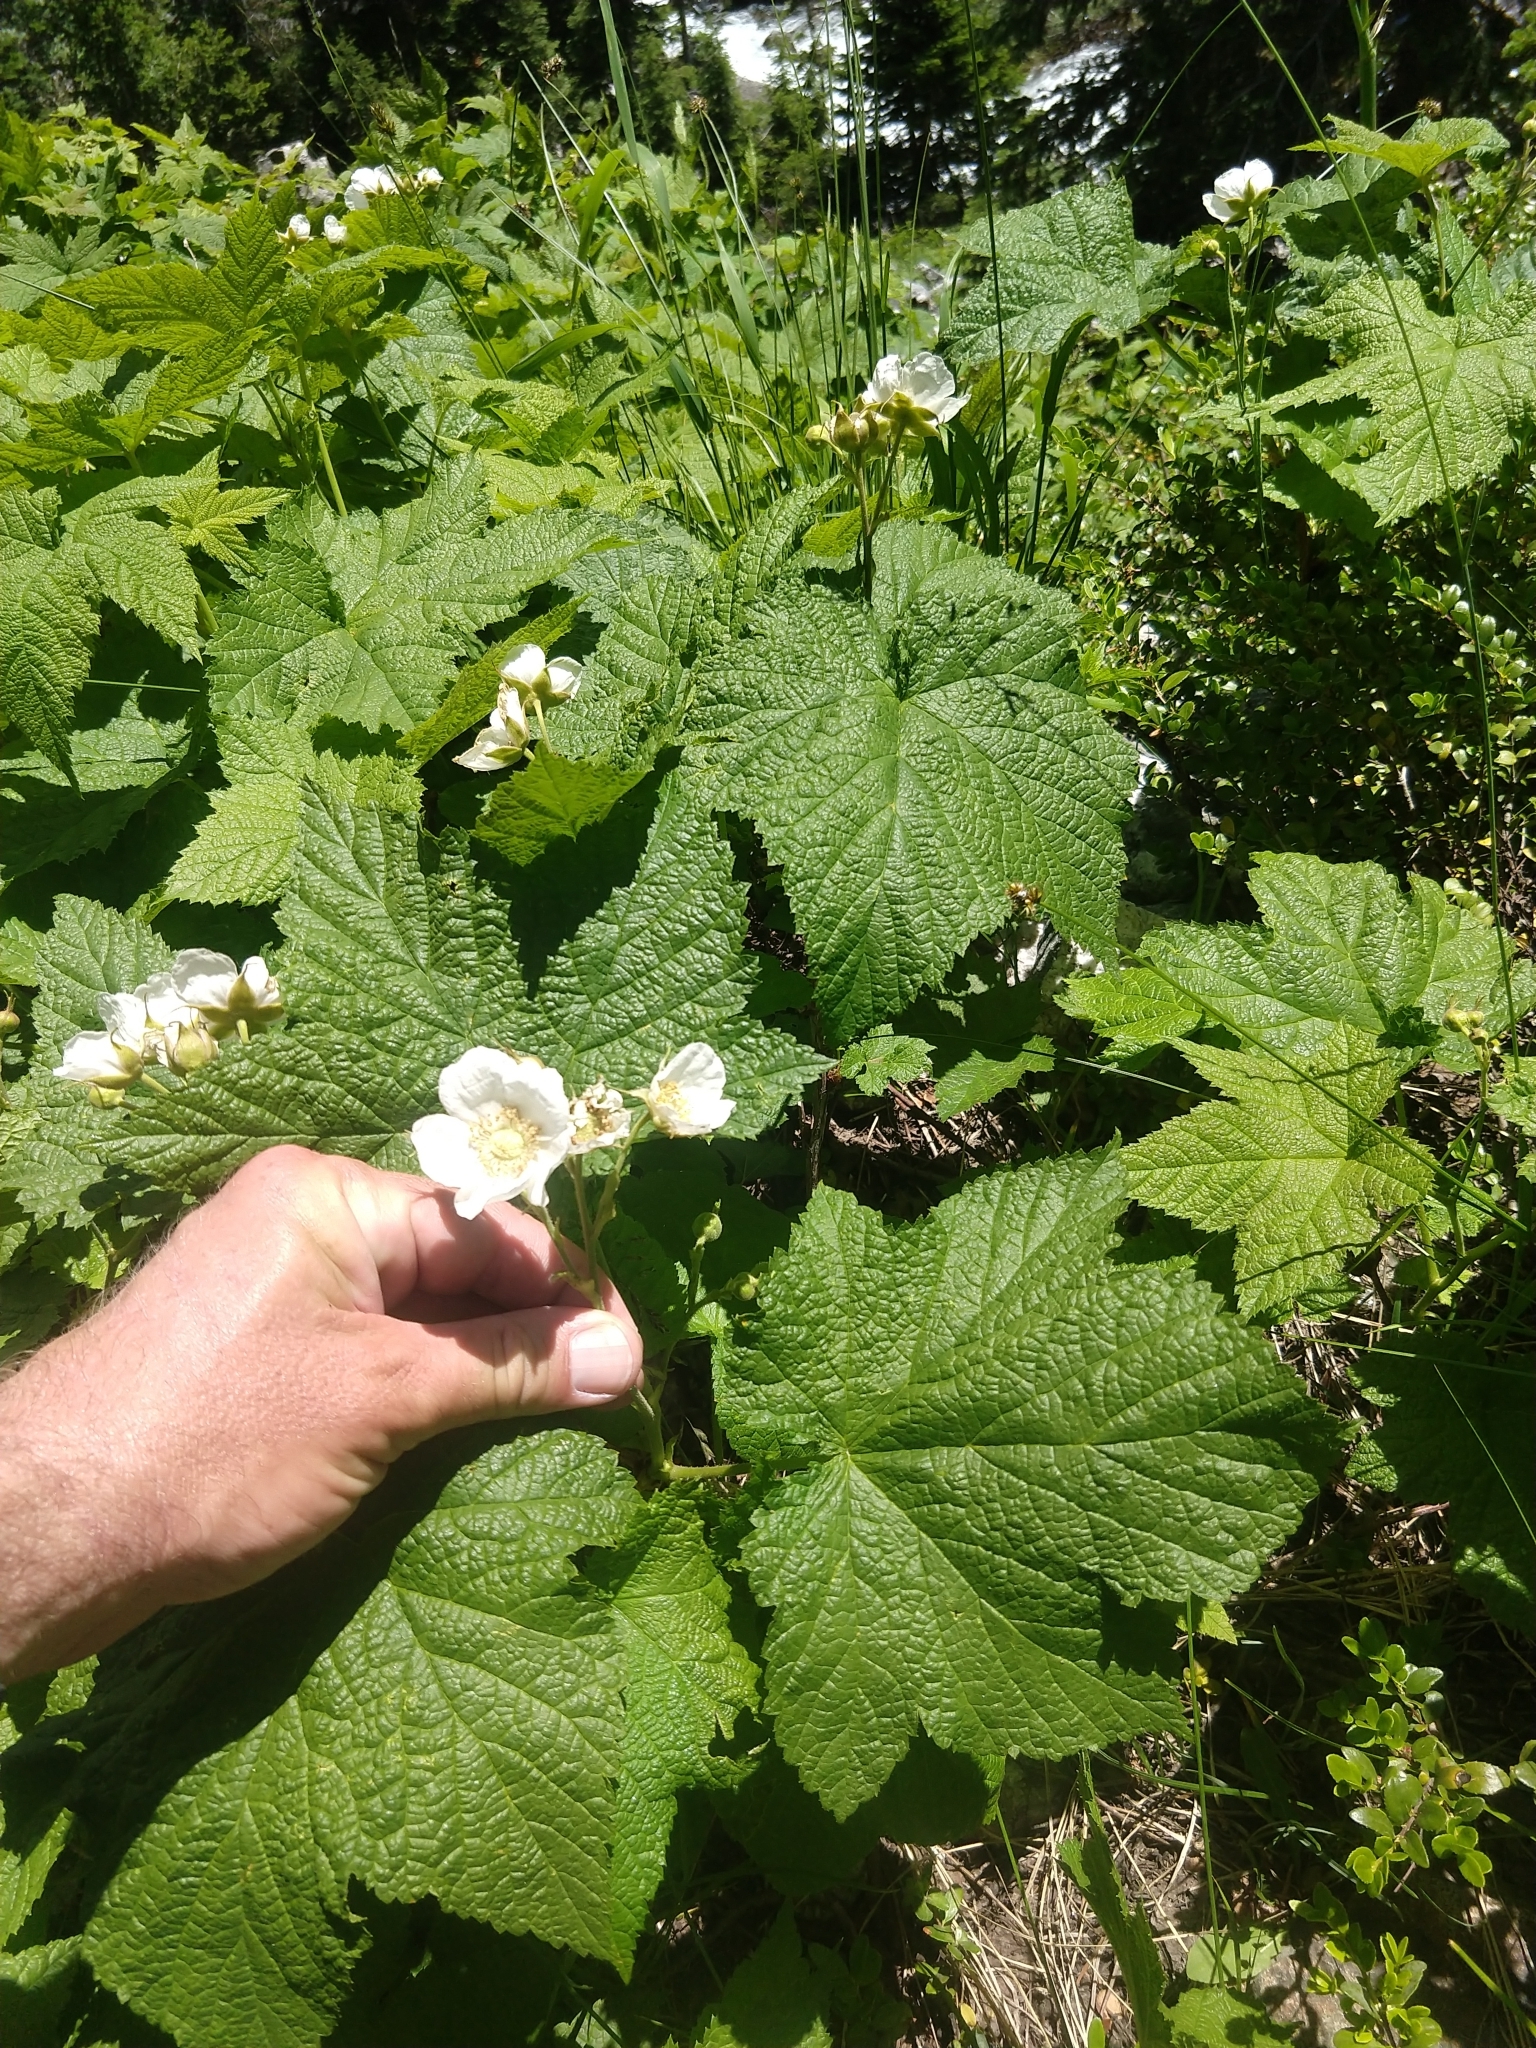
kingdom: Plantae
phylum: Tracheophyta
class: Magnoliopsida
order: Rosales
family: Rosaceae
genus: Rubus
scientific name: Rubus parviflorus
